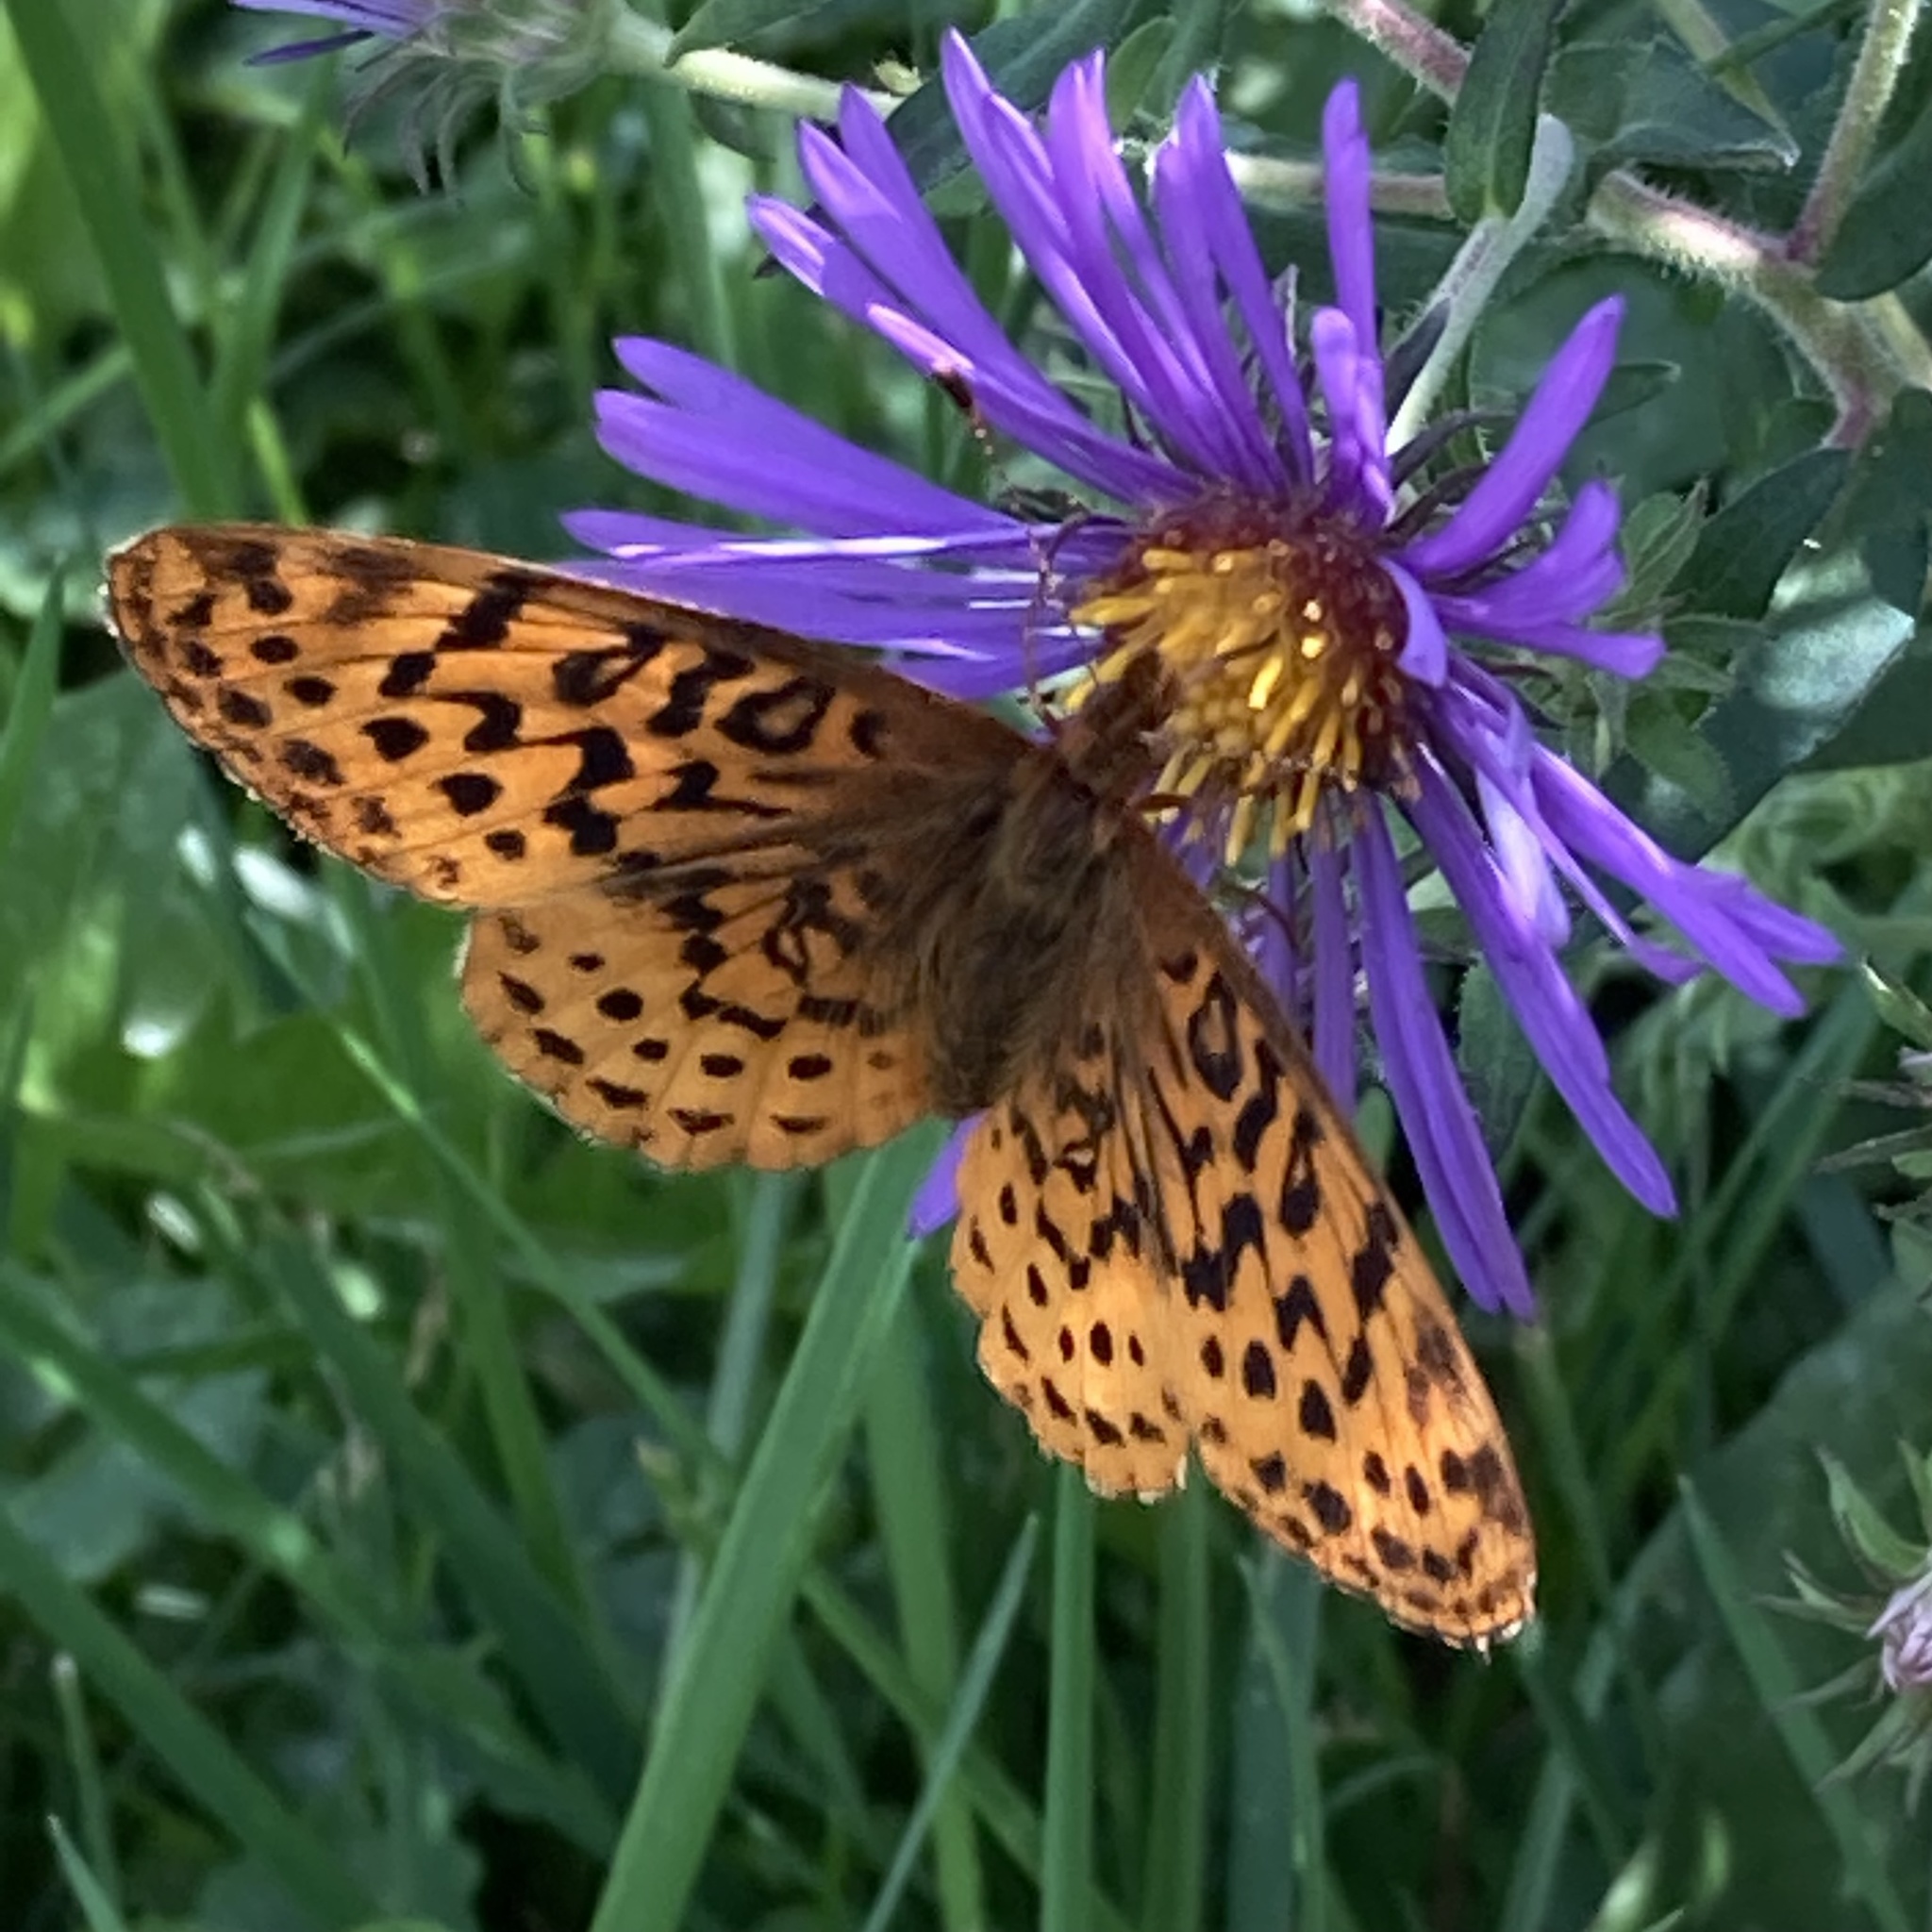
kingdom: Animalia
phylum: Arthropoda
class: Insecta
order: Lepidoptera
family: Nymphalidae
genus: Clossiana
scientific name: Clossiana toddi
